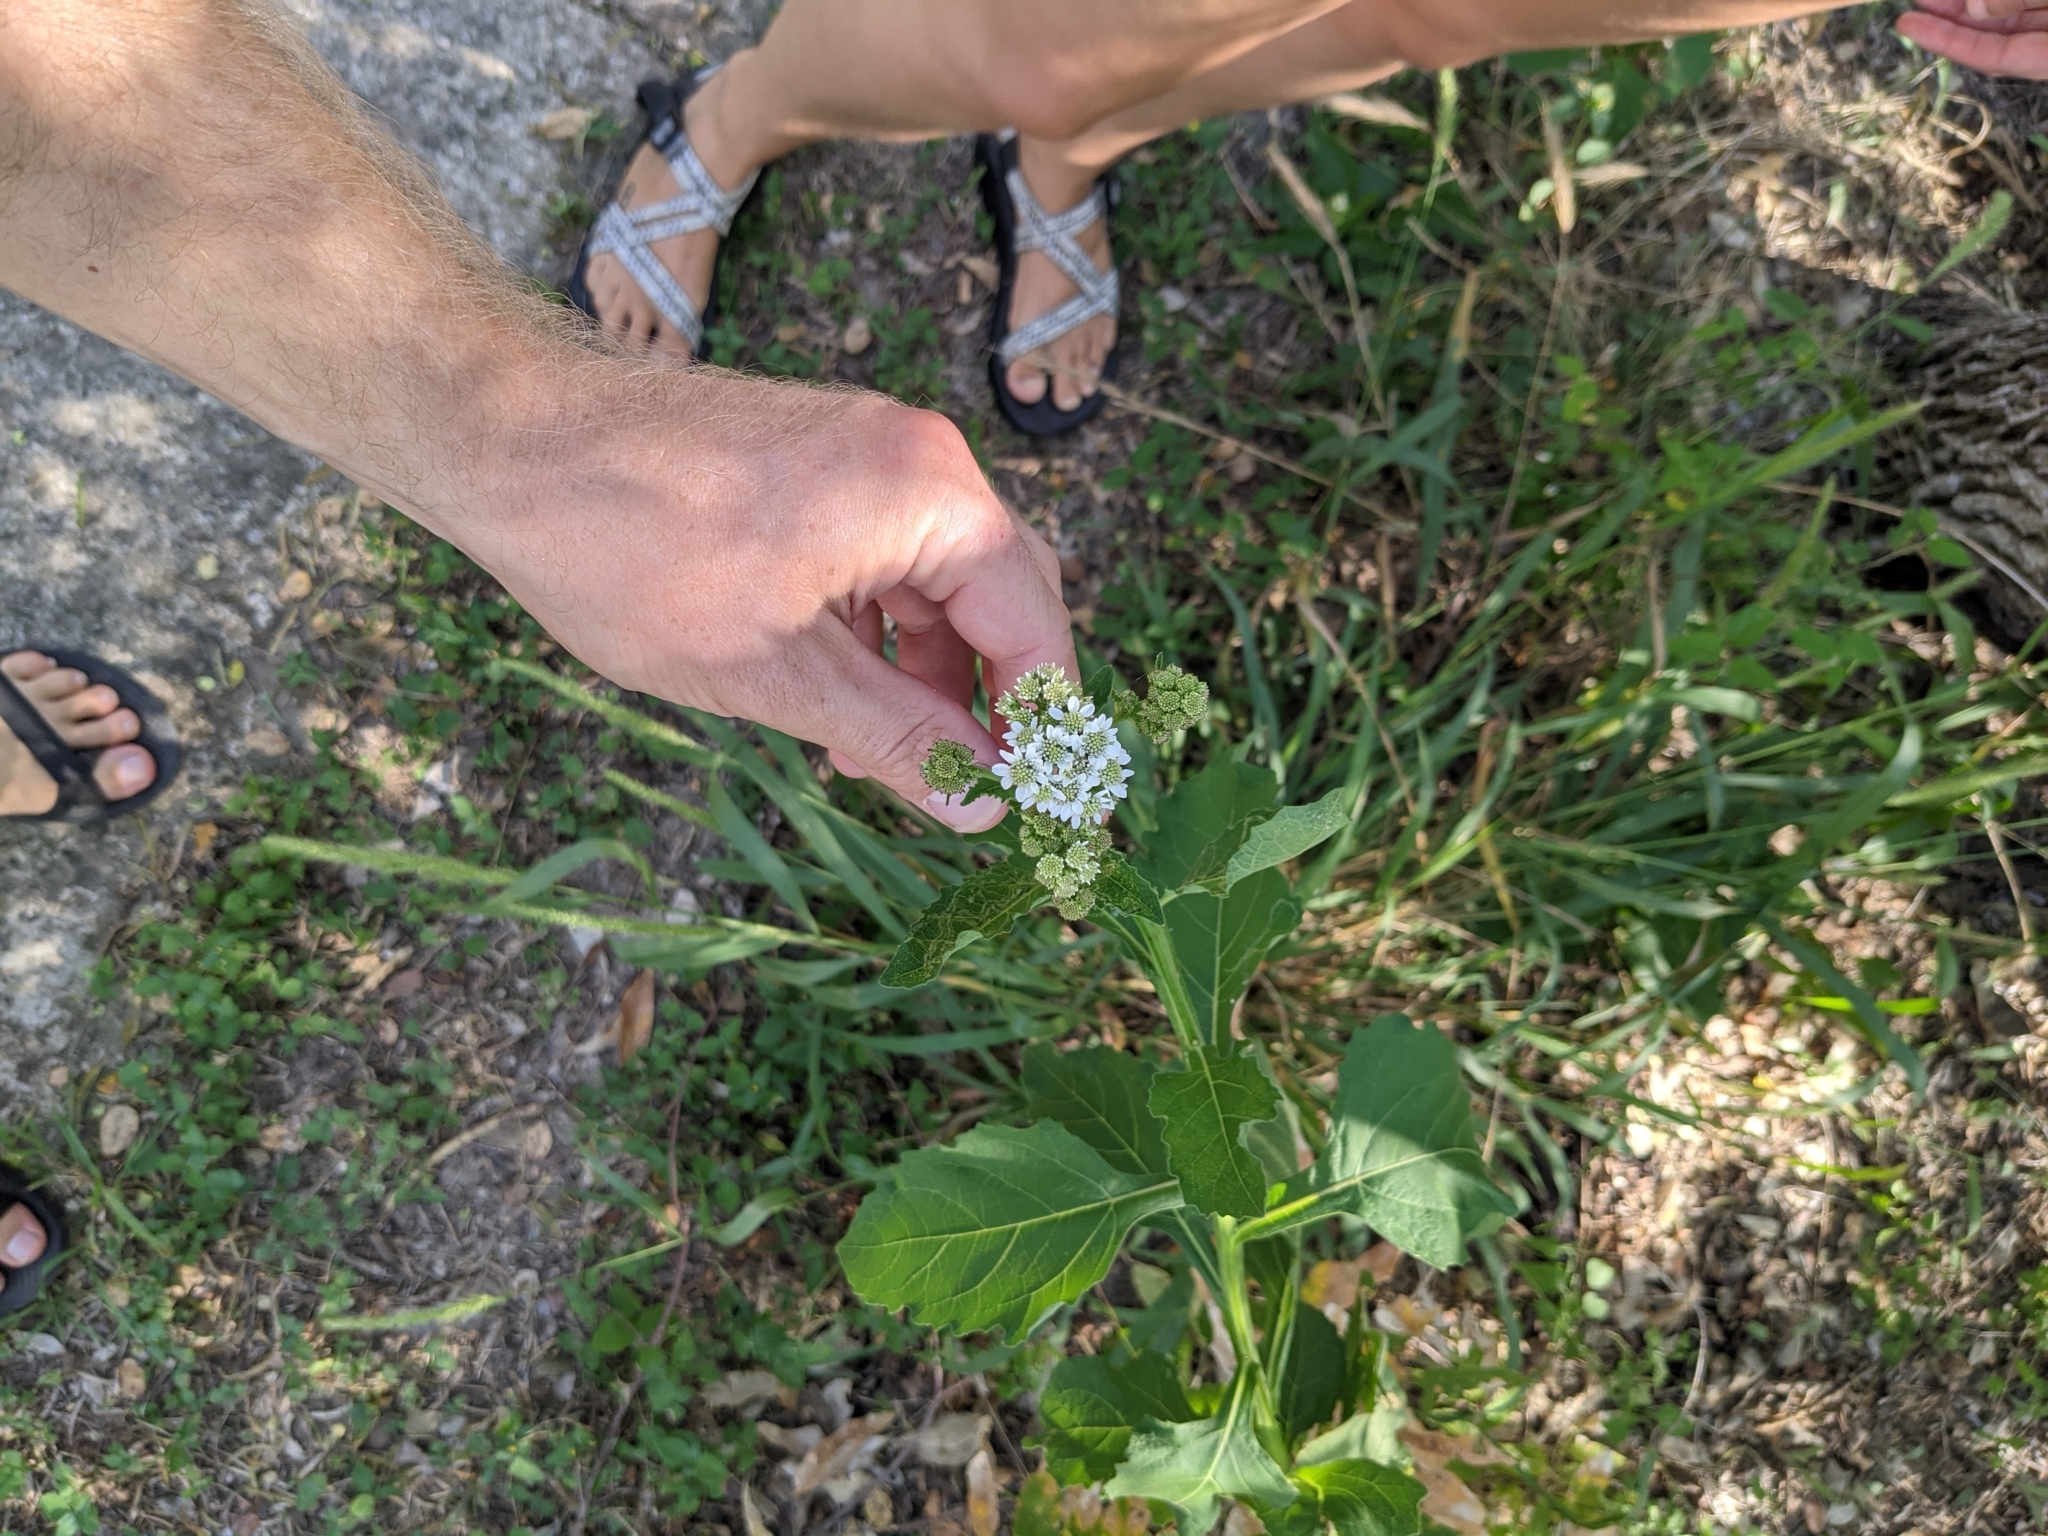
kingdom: Plantae
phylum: Tracheophyta
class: Magnoliopsida
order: Asterales
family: Asteraceae
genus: Verbesina
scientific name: Verbesina microptera
